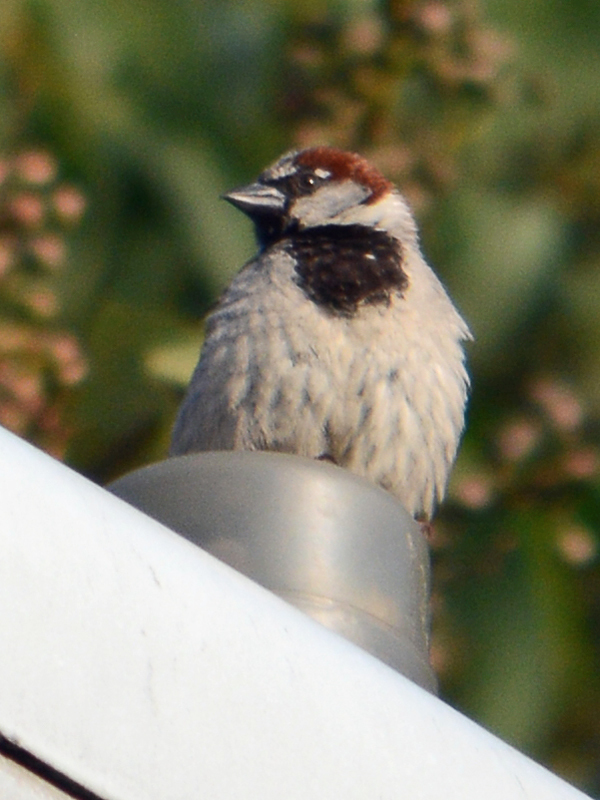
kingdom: Animalia
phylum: Chordata
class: Aves
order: Passeriformes
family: Passeridae
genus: Passer
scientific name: Passer domesticus
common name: House sparrow
